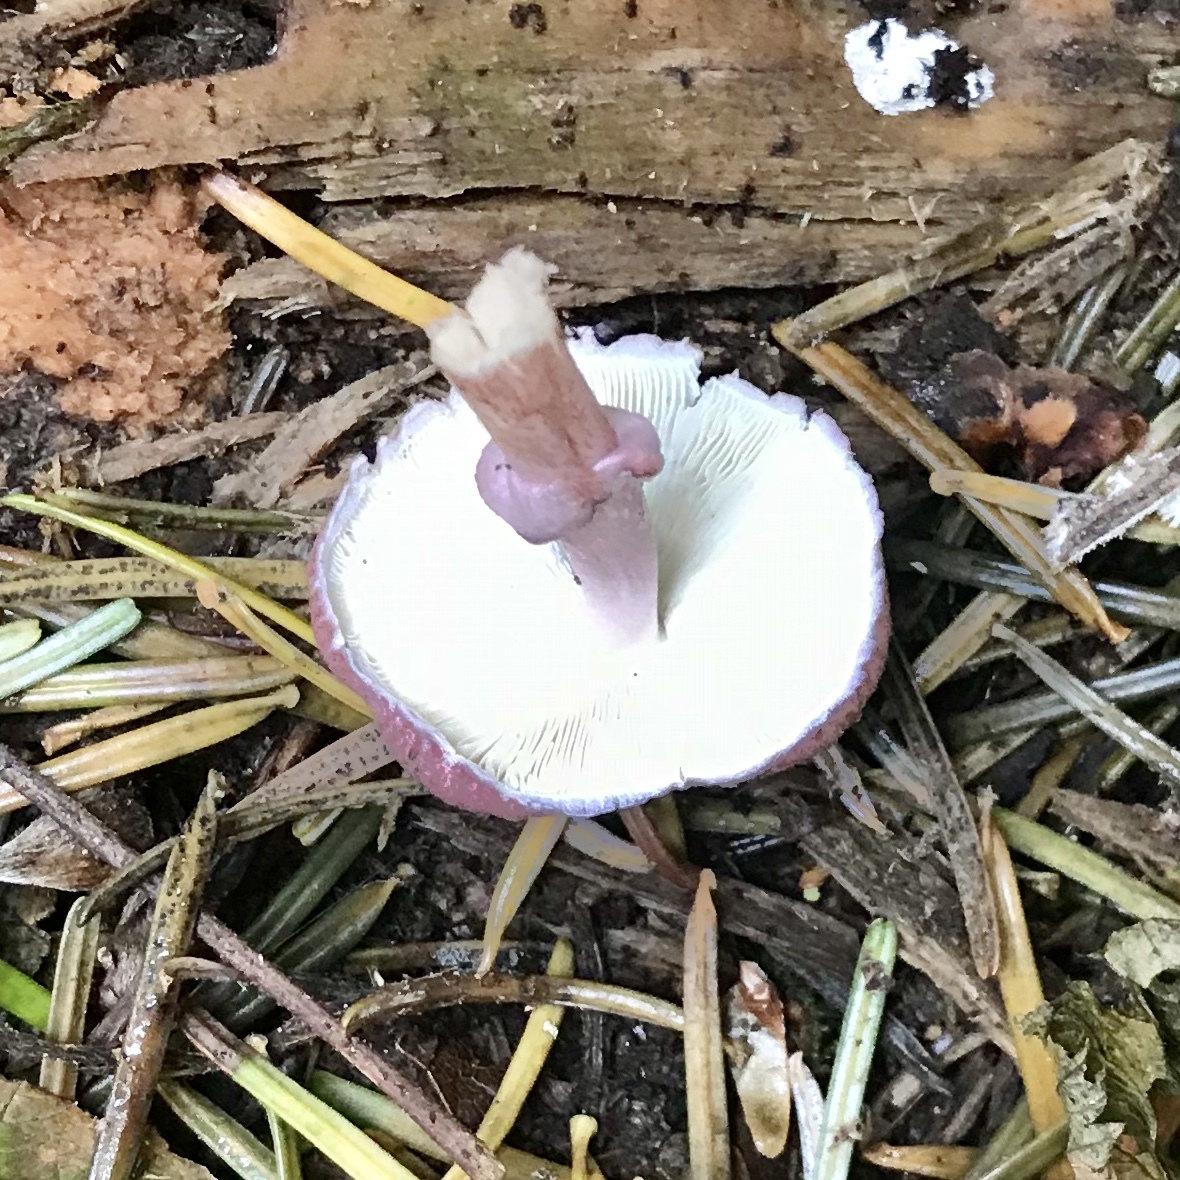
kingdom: Fungi
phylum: Basidiomycota
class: Agaricomycetes
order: Agaricales
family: Agaricaceae
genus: Leucoagaricus
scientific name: Leucoagaricus roseilividus
